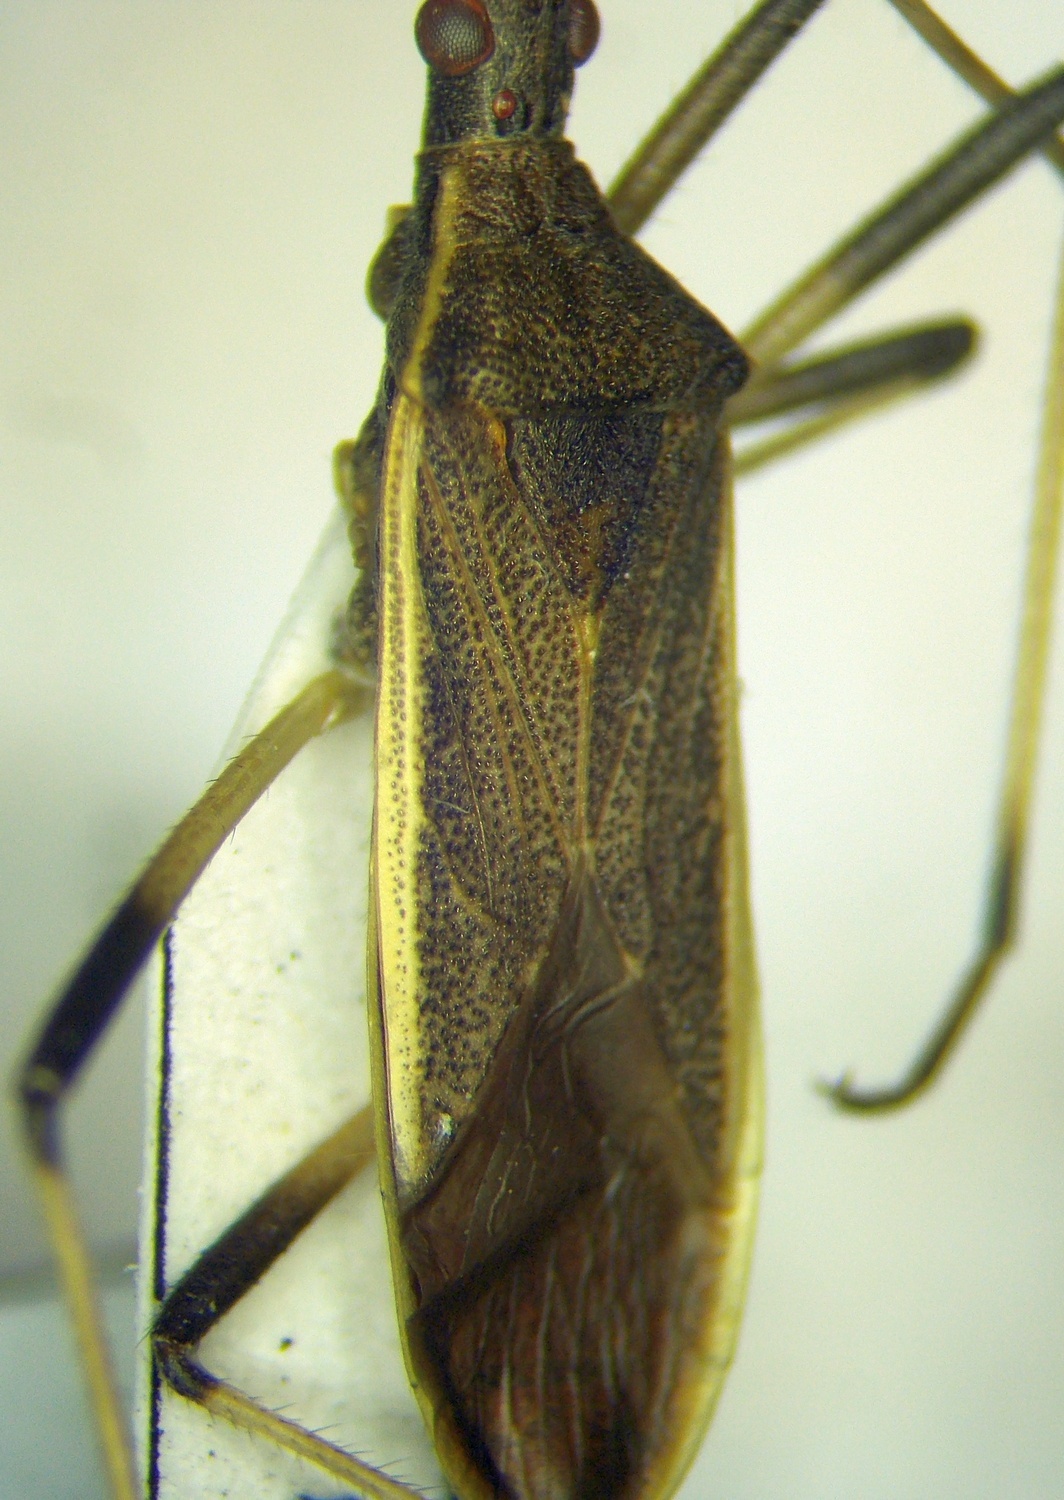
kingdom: Animalia
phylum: Arthropoda
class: Insecta
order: Hemiptera
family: Stenocephalidae
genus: Dicranocephalus
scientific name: Dicranocephalus marginatus
